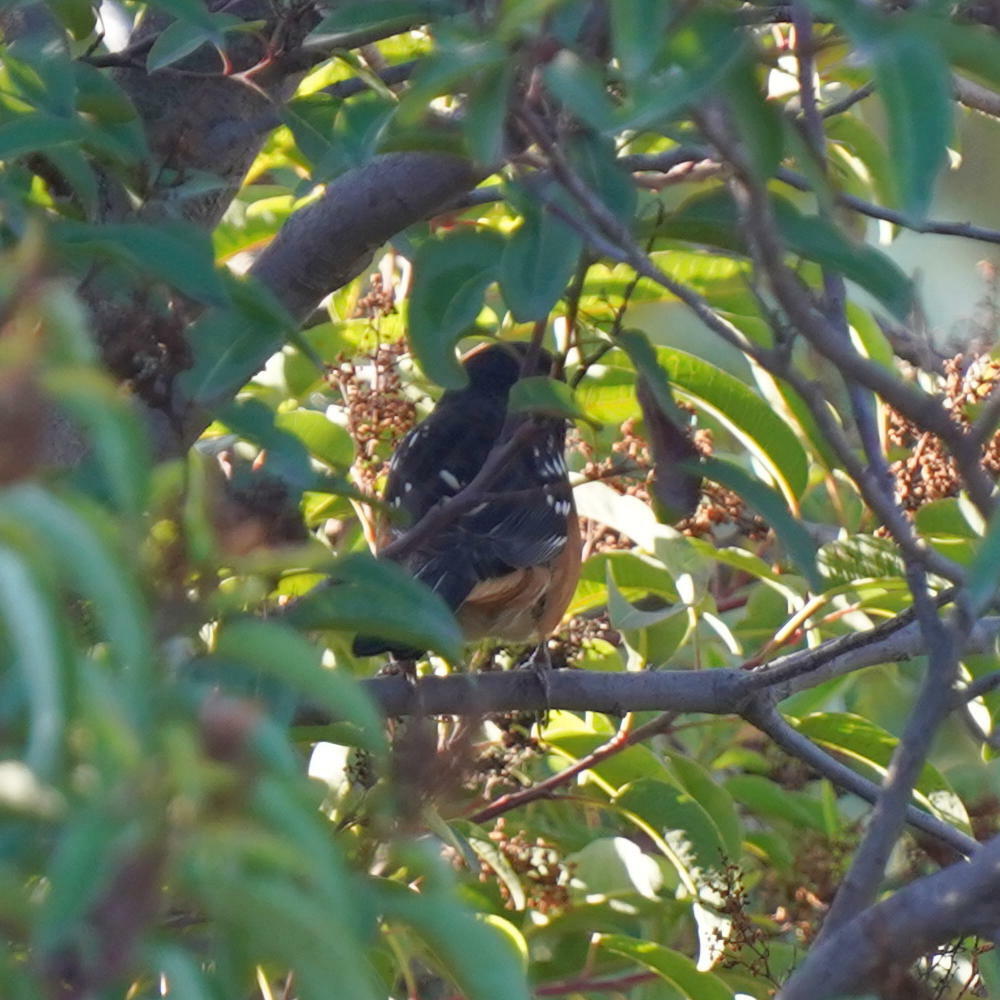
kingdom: Animalia
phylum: Chordata
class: Aves
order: Passeriformes
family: Passerellidae
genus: Pipilo
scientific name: Pipilo maculatus
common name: Spotted towhee
